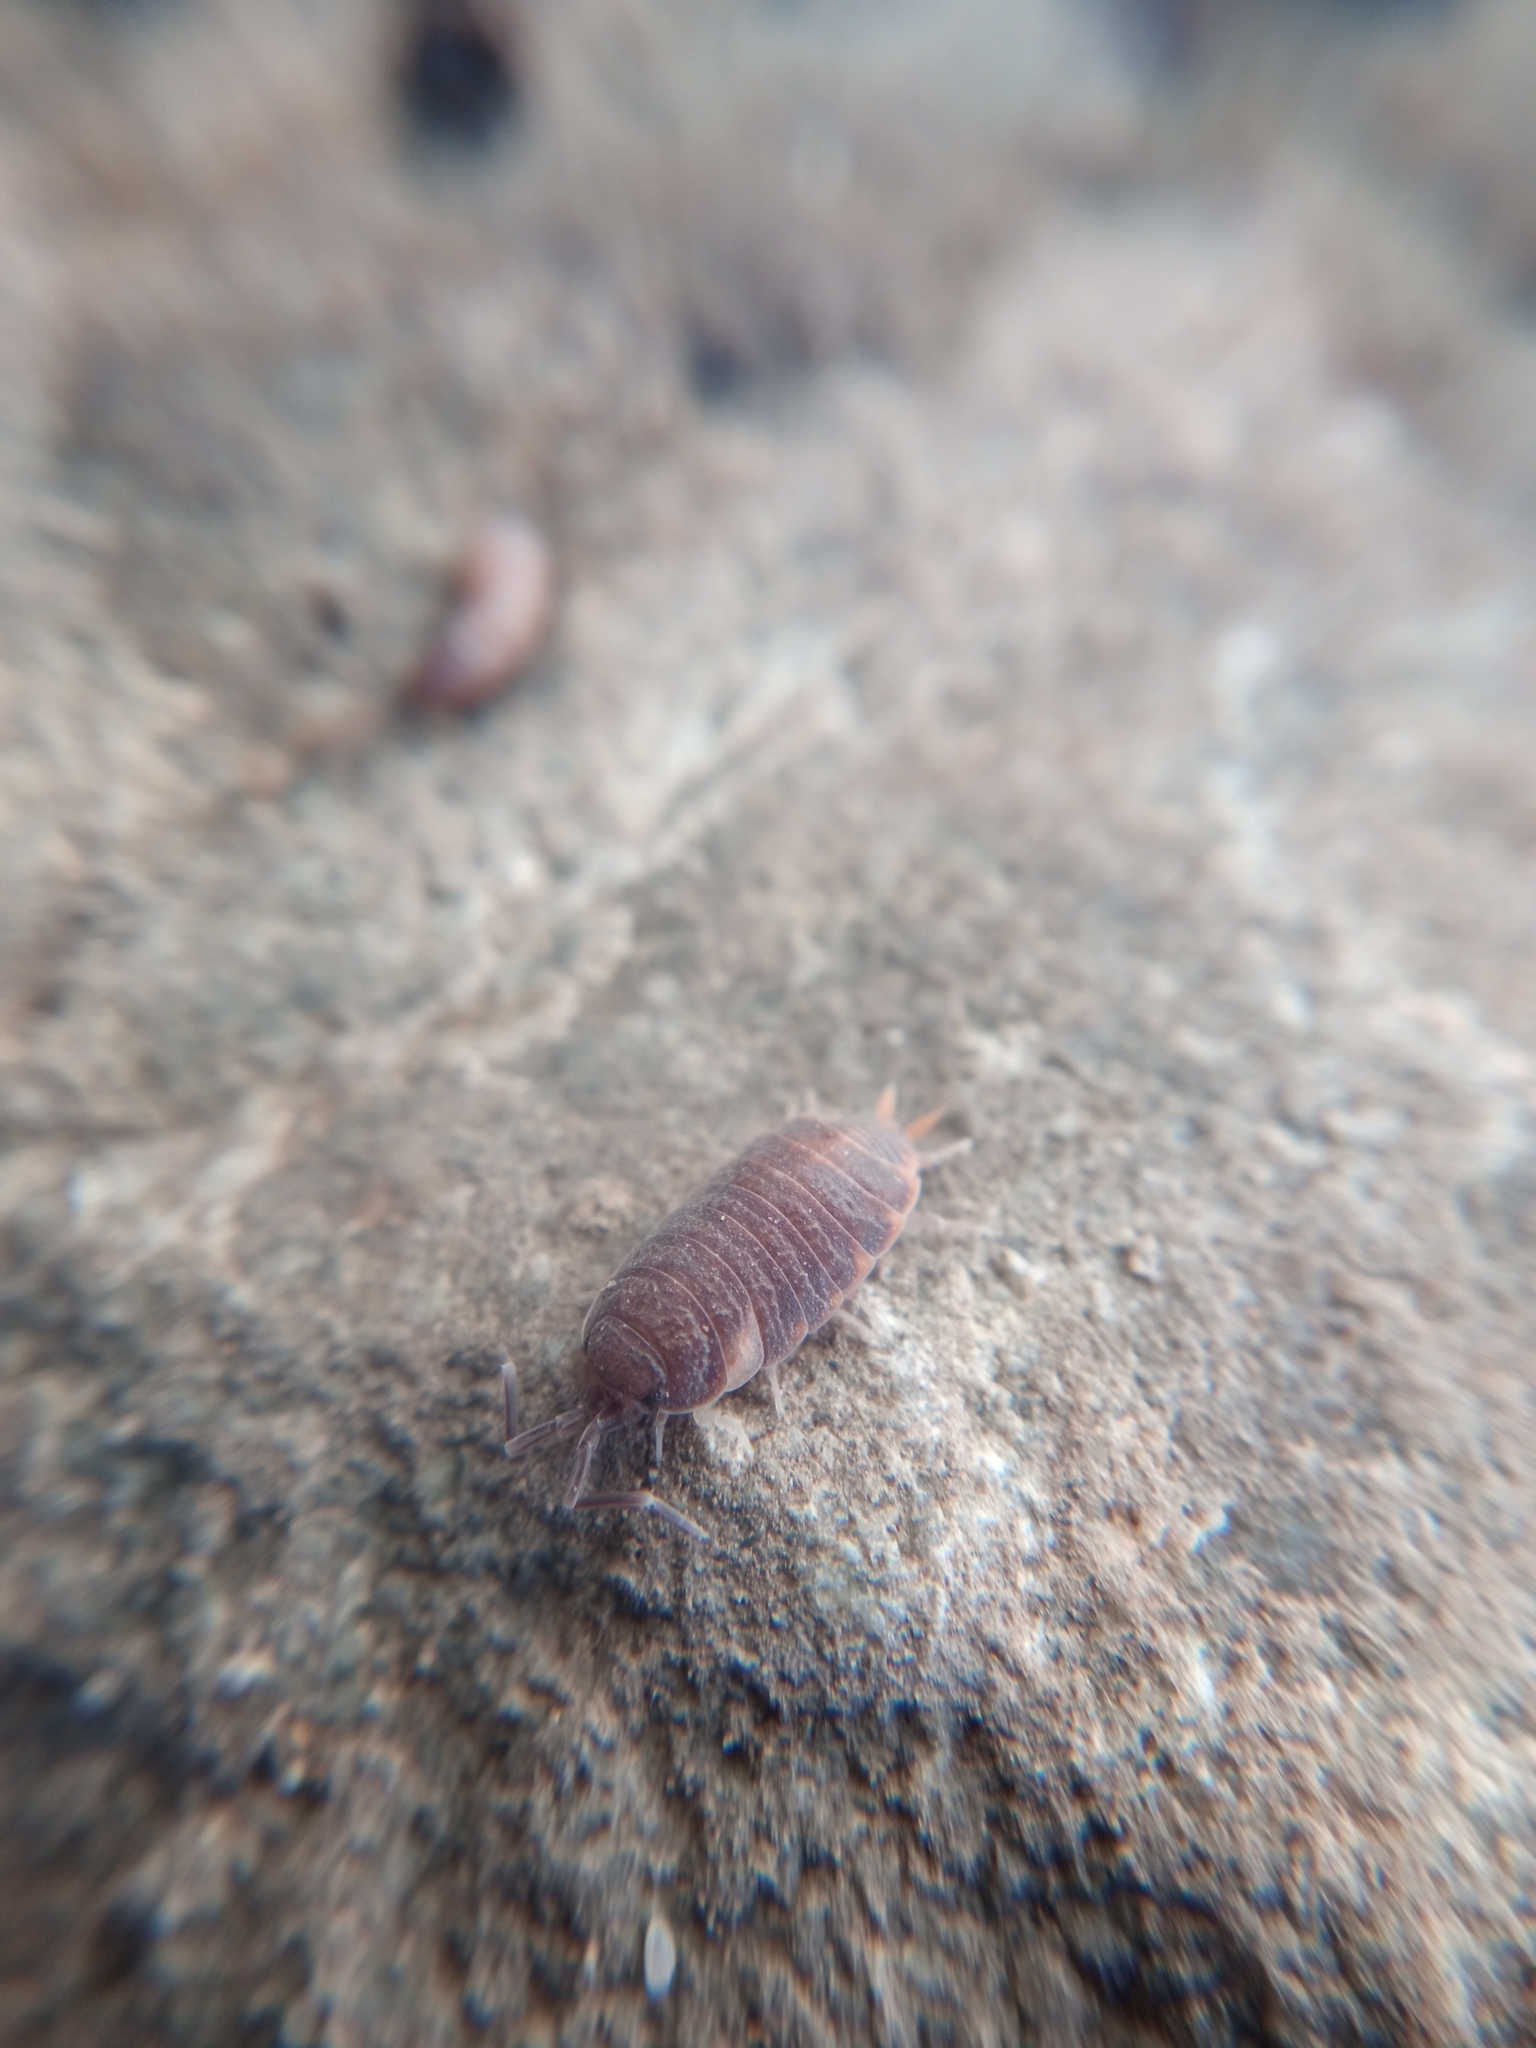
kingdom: Animalia
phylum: Arthropoda
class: Malacostraca
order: Isopoda
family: Porcellionidae
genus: Porcellionides
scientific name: Porcellionides pruinosus
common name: Plum woodlouse
